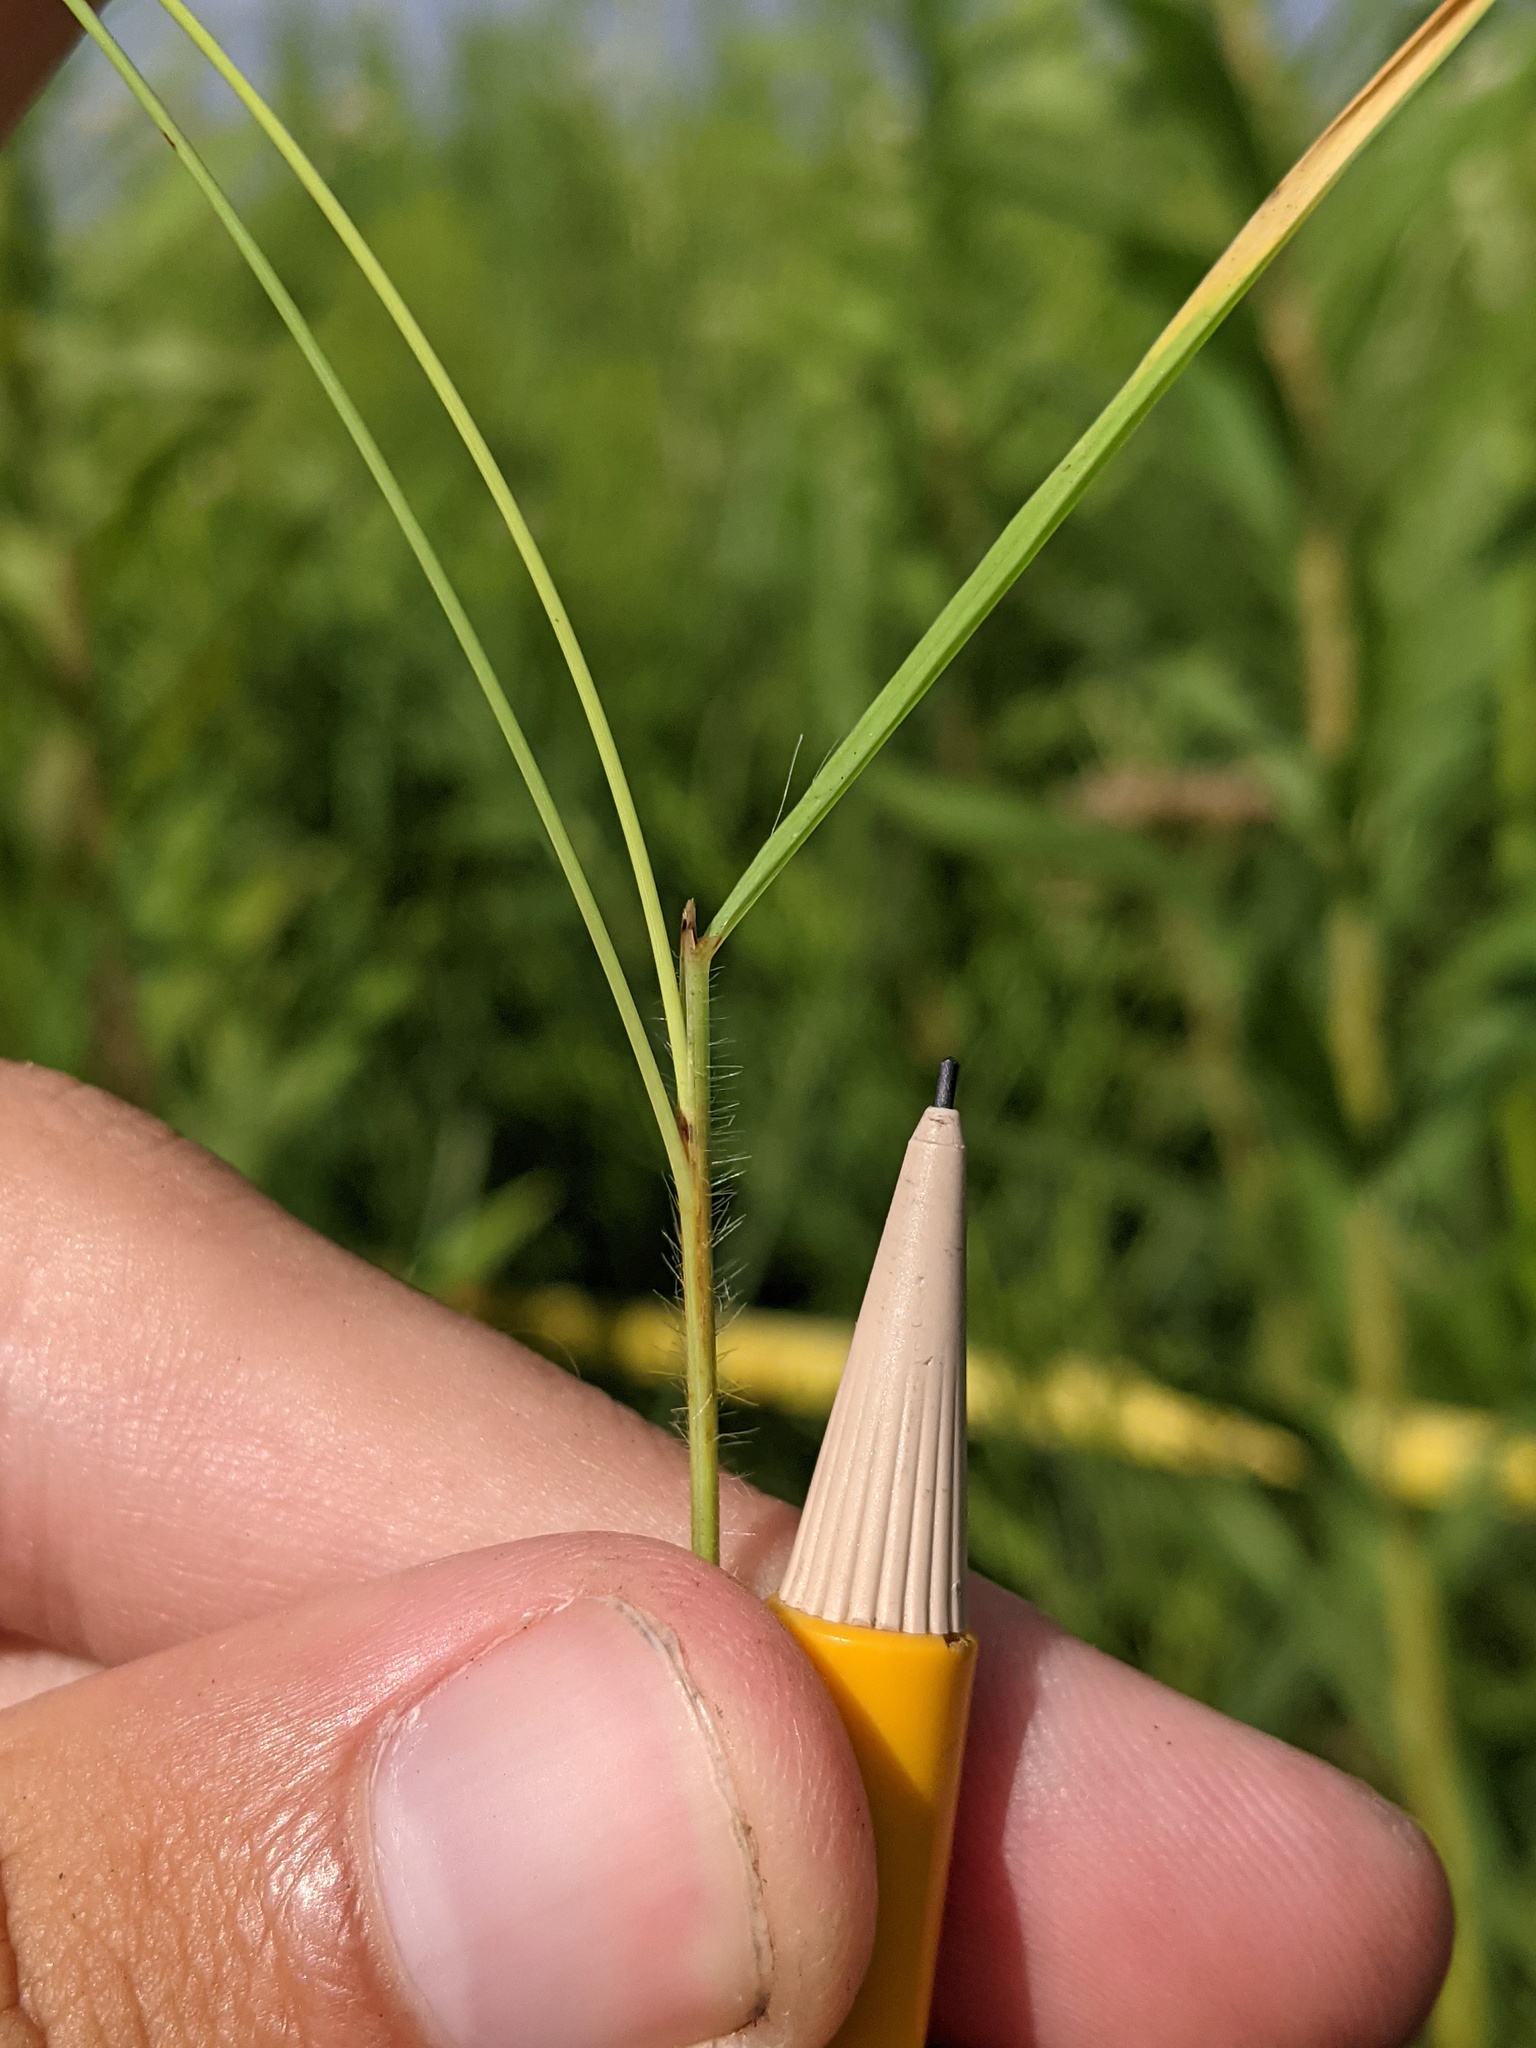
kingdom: Plantae
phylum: Tracheophyta
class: Liliopsida
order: Poales
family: Poaceae
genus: Sorghastrum
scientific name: Sorghastrum nutans
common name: Indian grass
